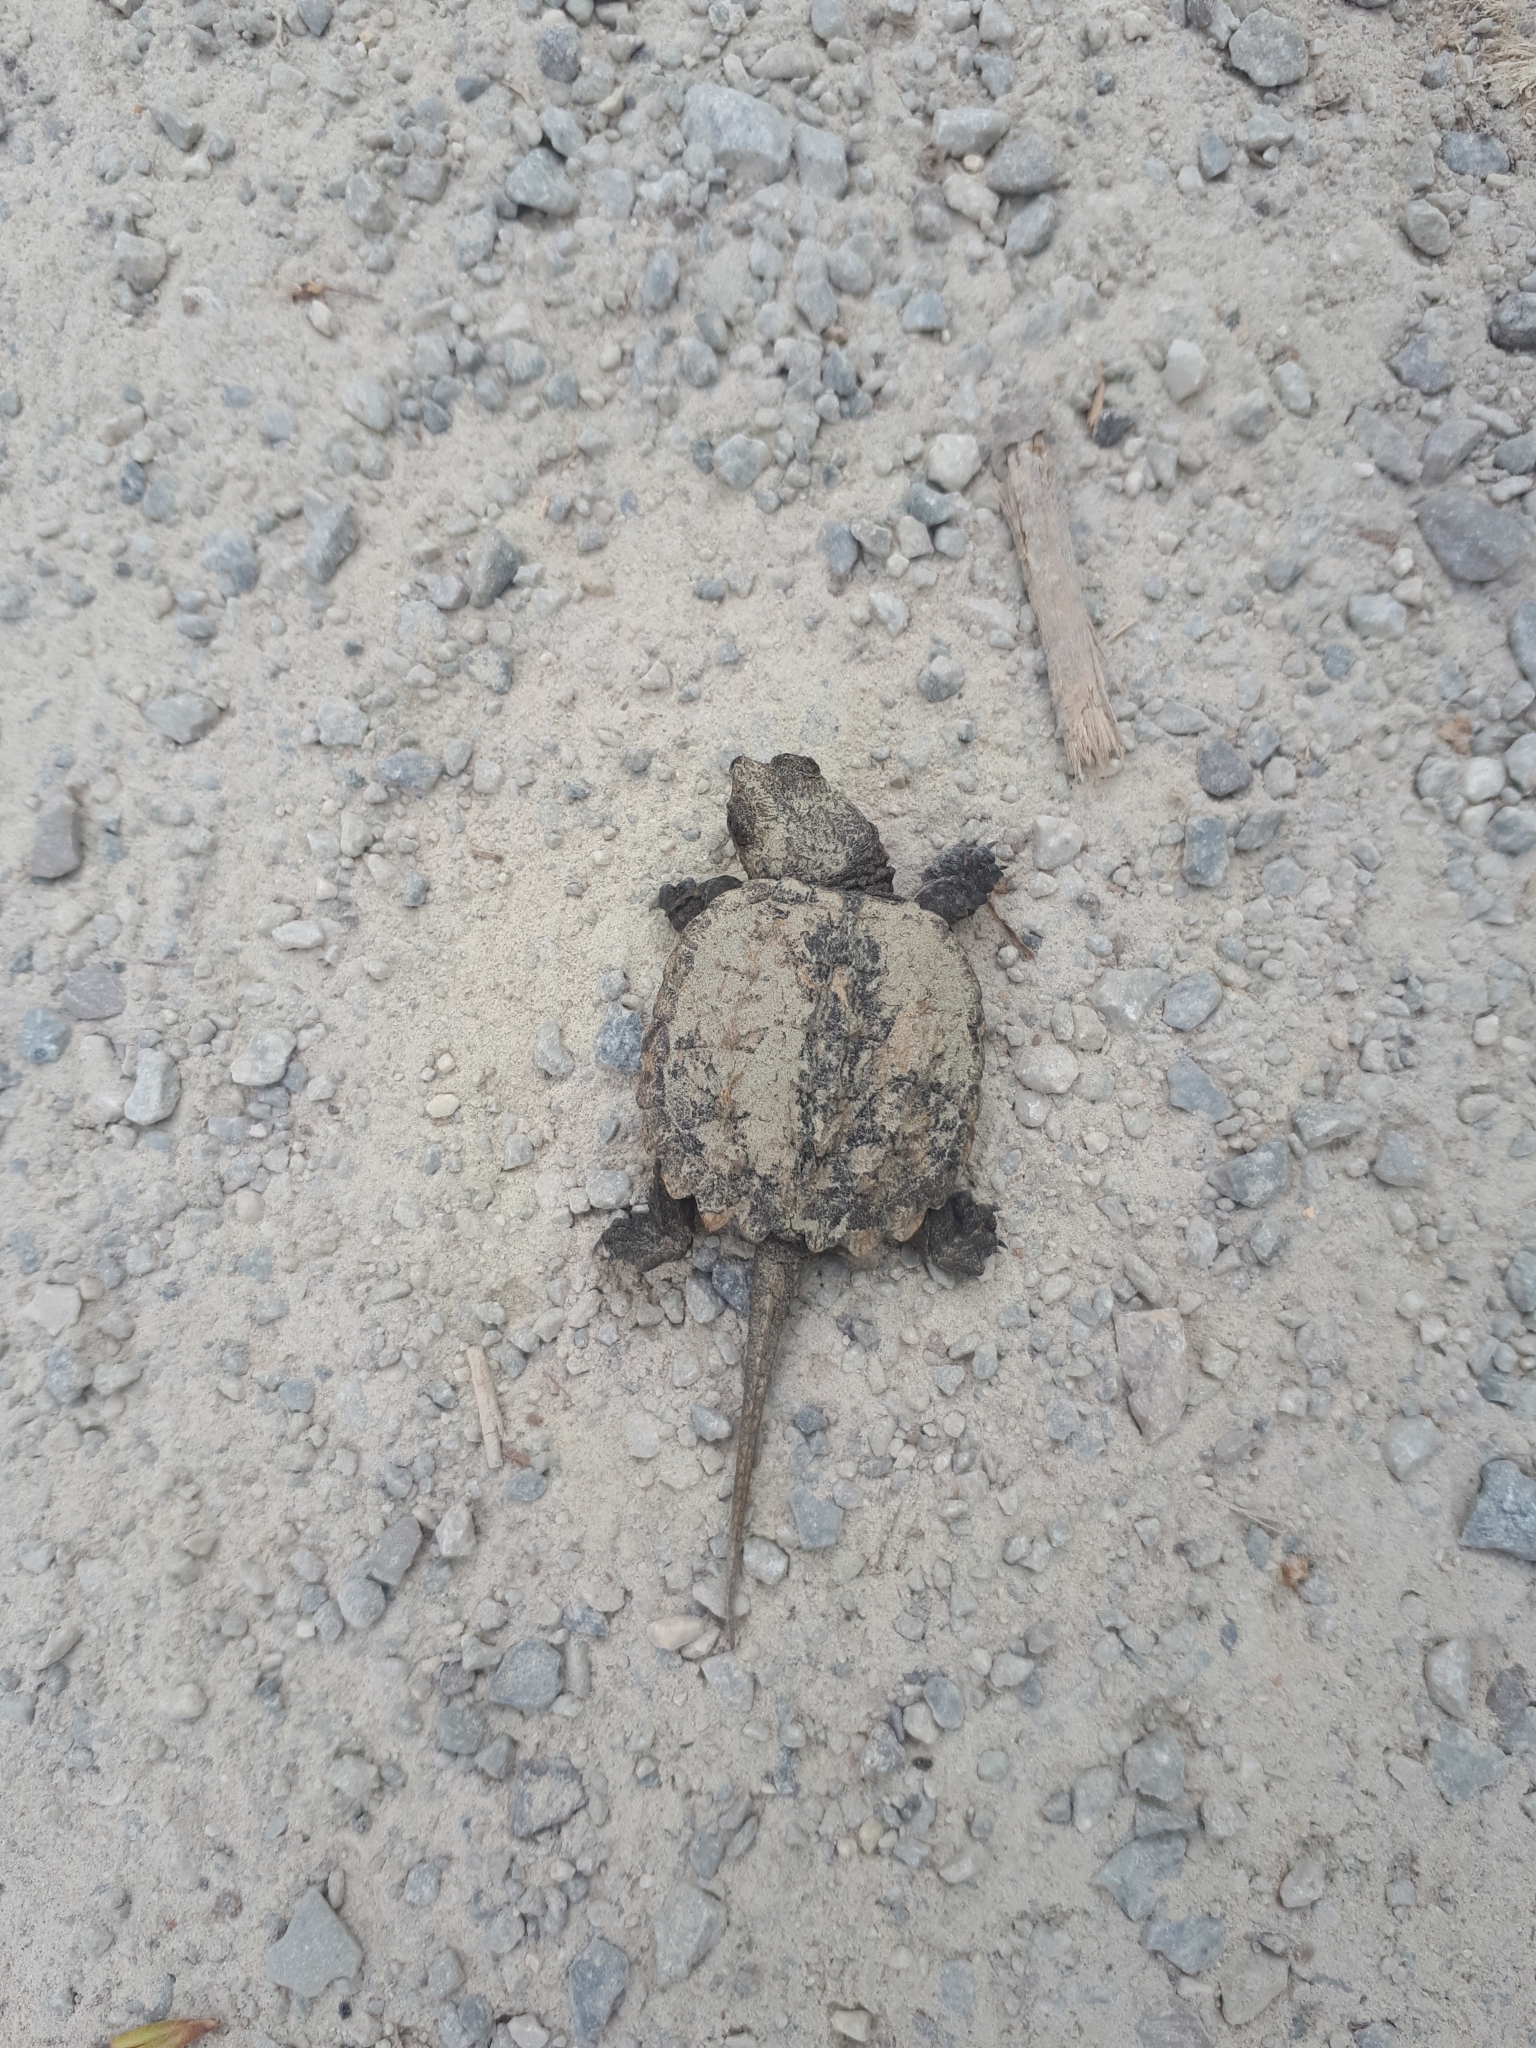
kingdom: Animalia
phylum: Chordata
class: Testudines
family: Chelydridae
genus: Chelydra
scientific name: Chelydra serpentina
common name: Common snapping turtle
